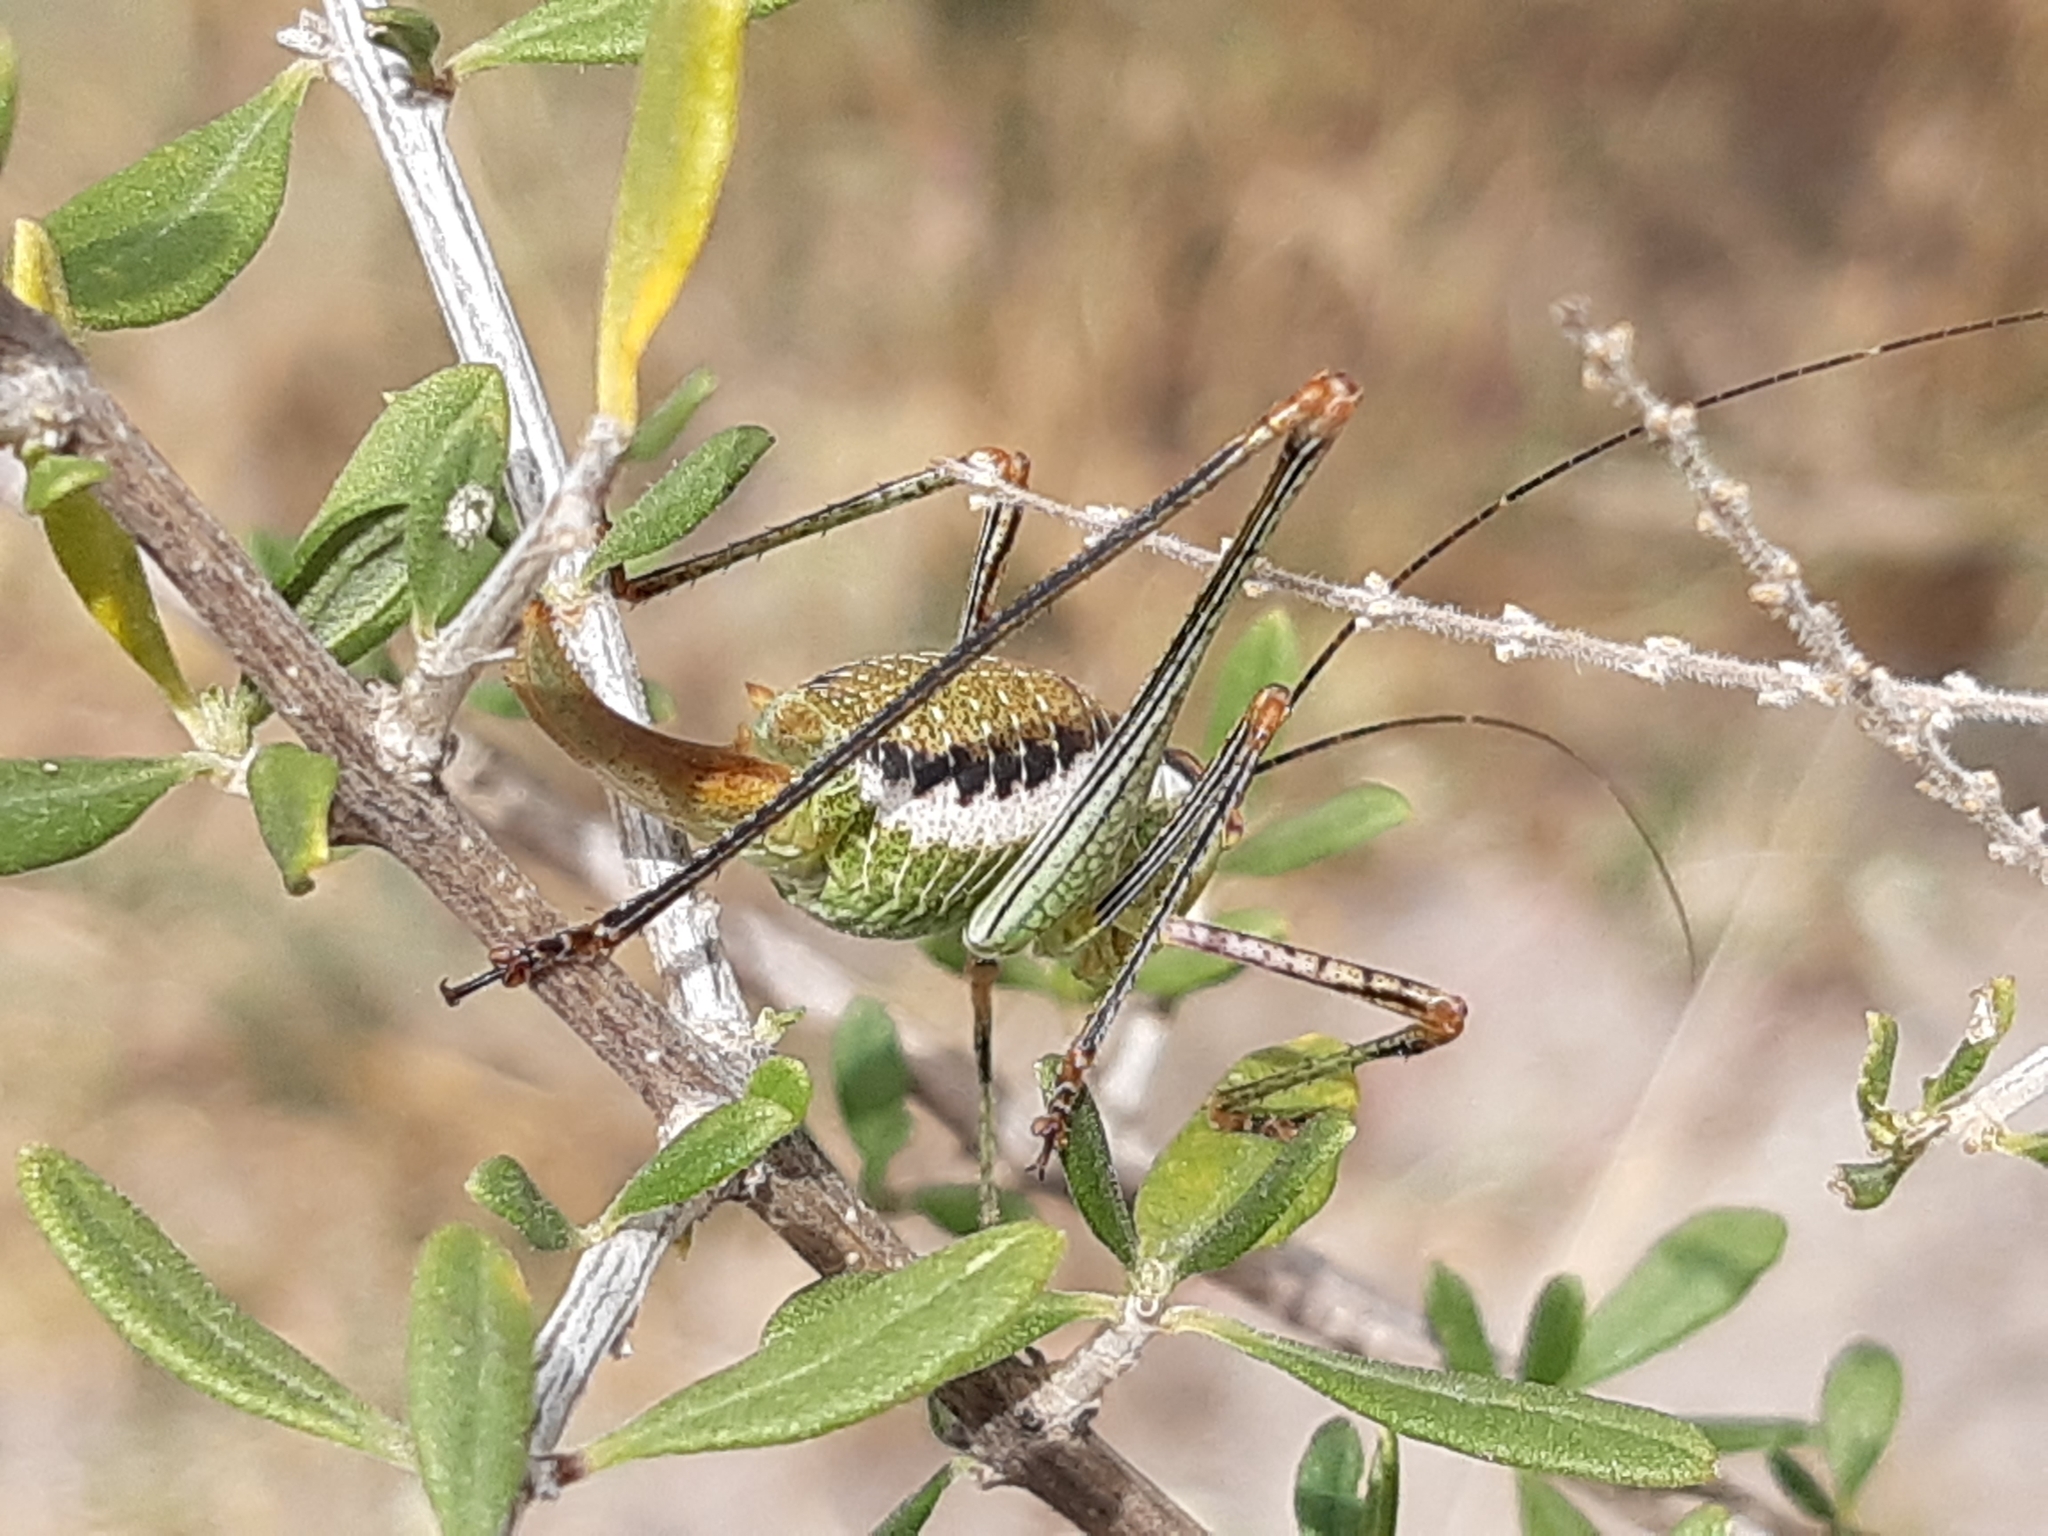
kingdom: Animalia
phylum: Arthropoda
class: Insecta
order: Orthoptera
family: Tettigoniidae
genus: Obolopteryx
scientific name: Obolopteryx brevihastata
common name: Common short-winged katydid
